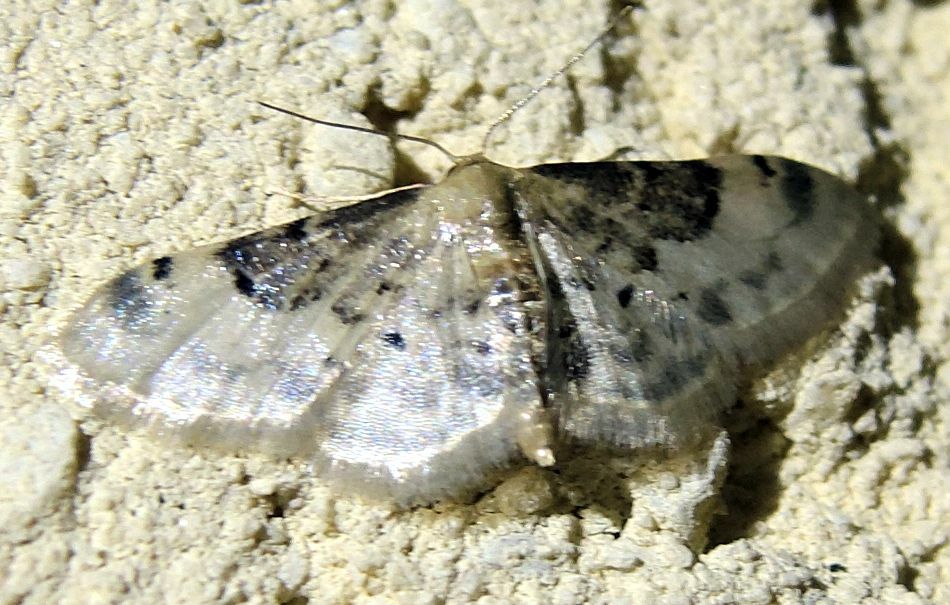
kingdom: Animalia
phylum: Arthropoda
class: Insecta
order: Lepidoptera
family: Geometridae
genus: Idaea
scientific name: Idaea filicata
